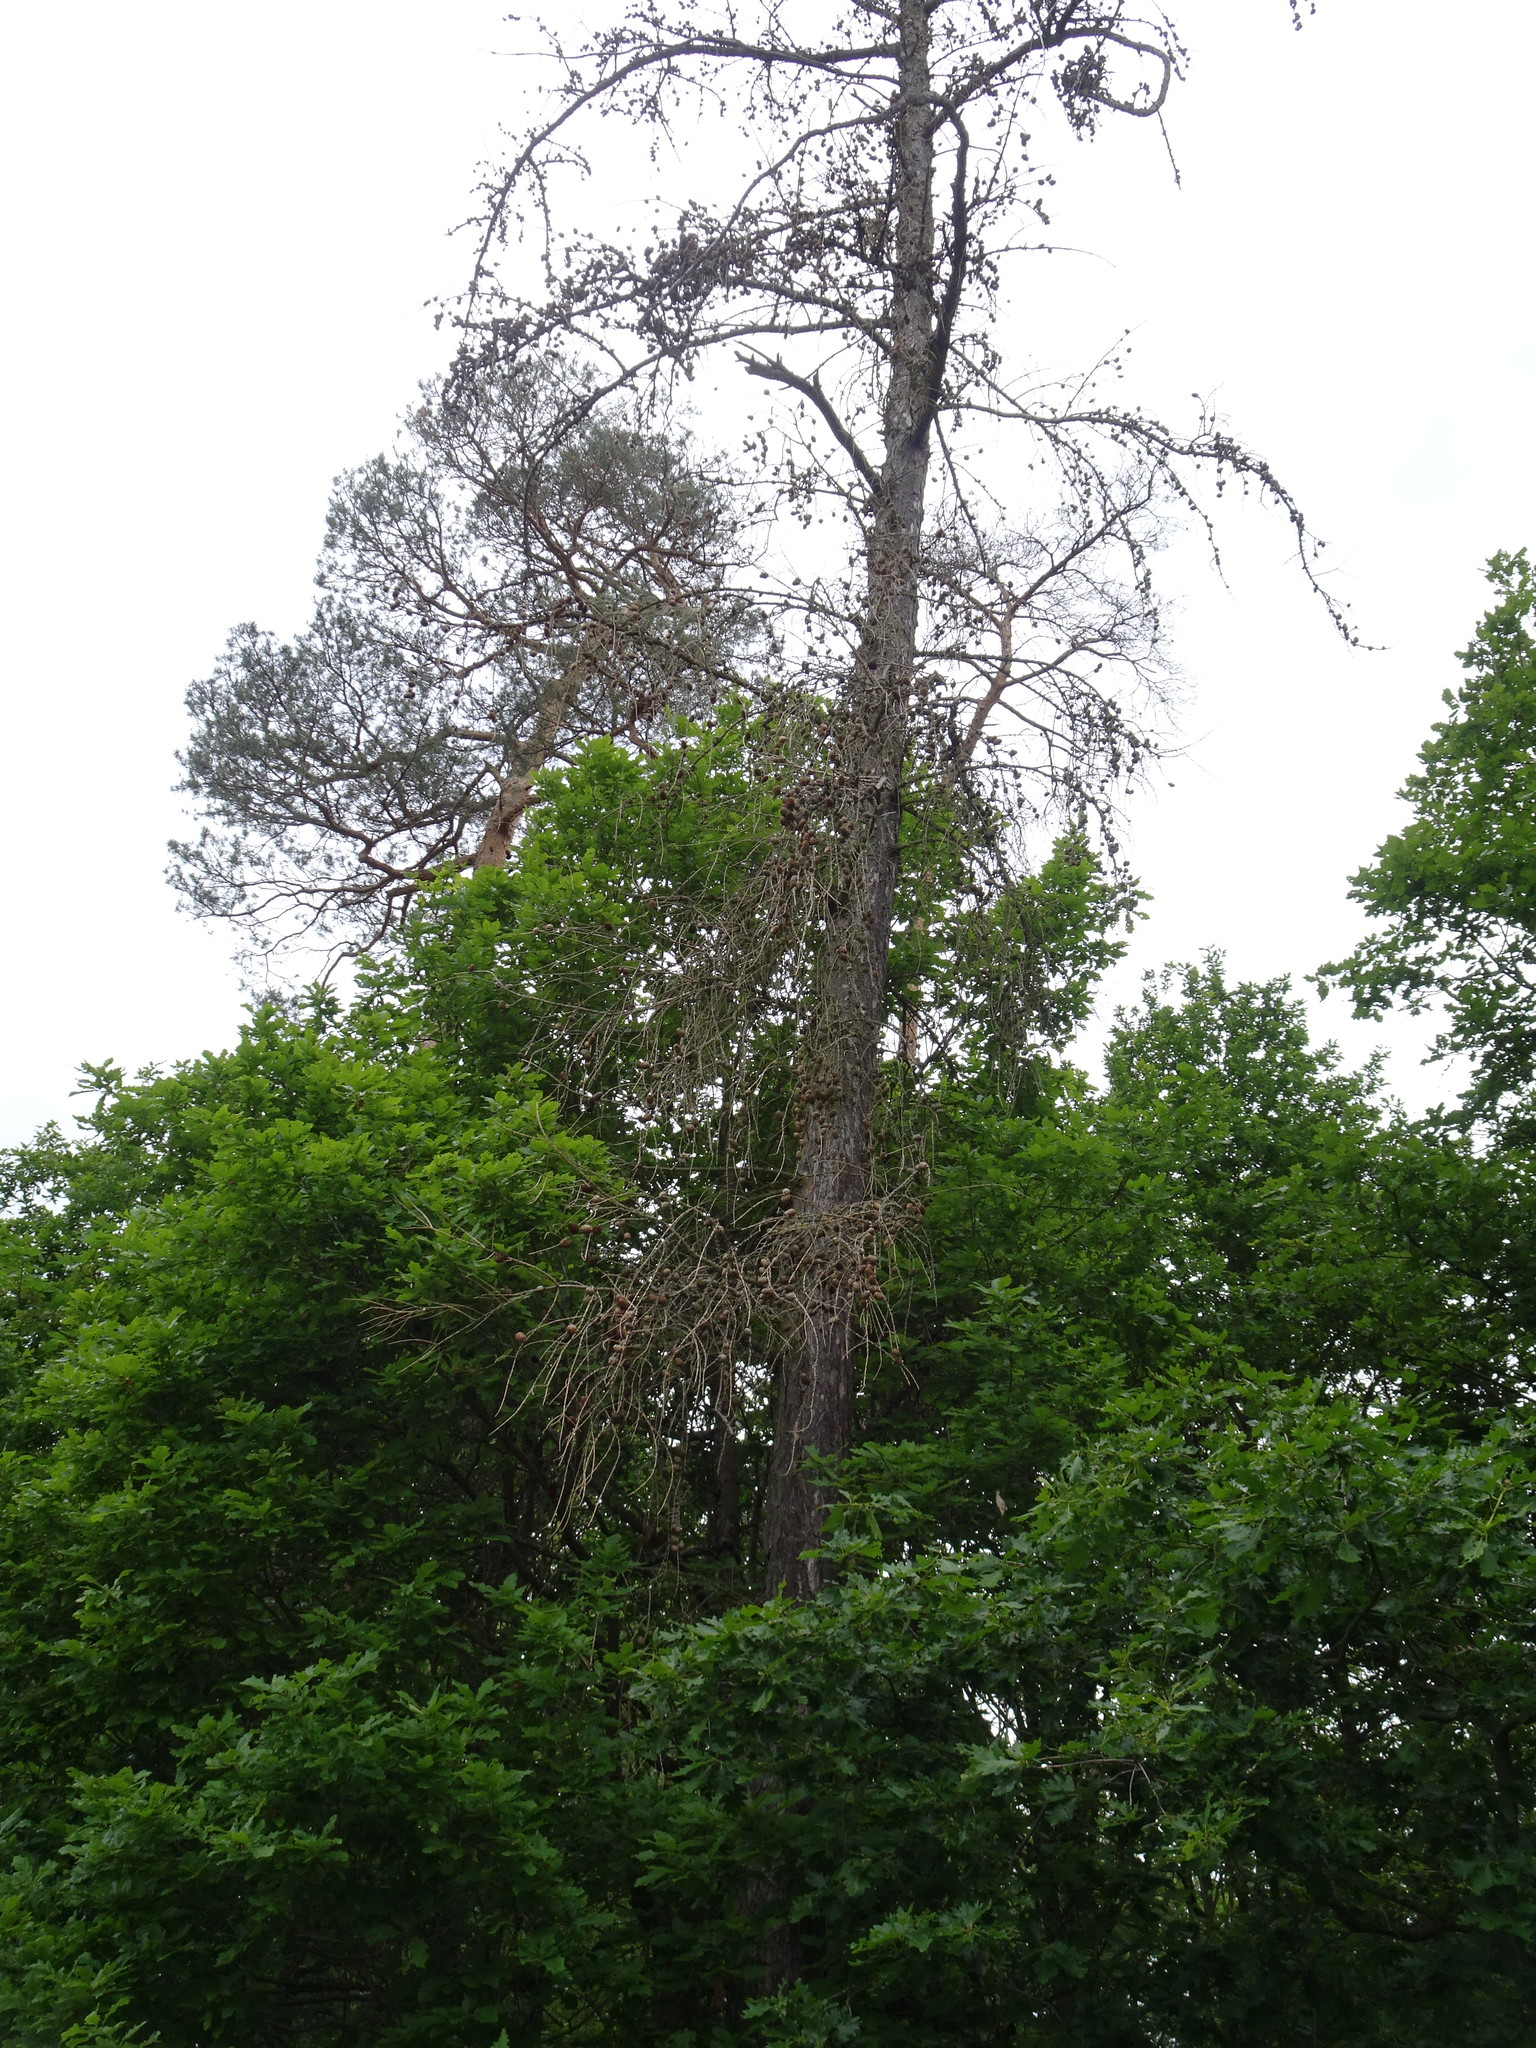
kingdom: Plantae
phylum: Tracheophyta
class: Pinopsida
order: Pinales
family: Pinaceae
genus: Larix
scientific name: Larix decidua
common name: European larch
